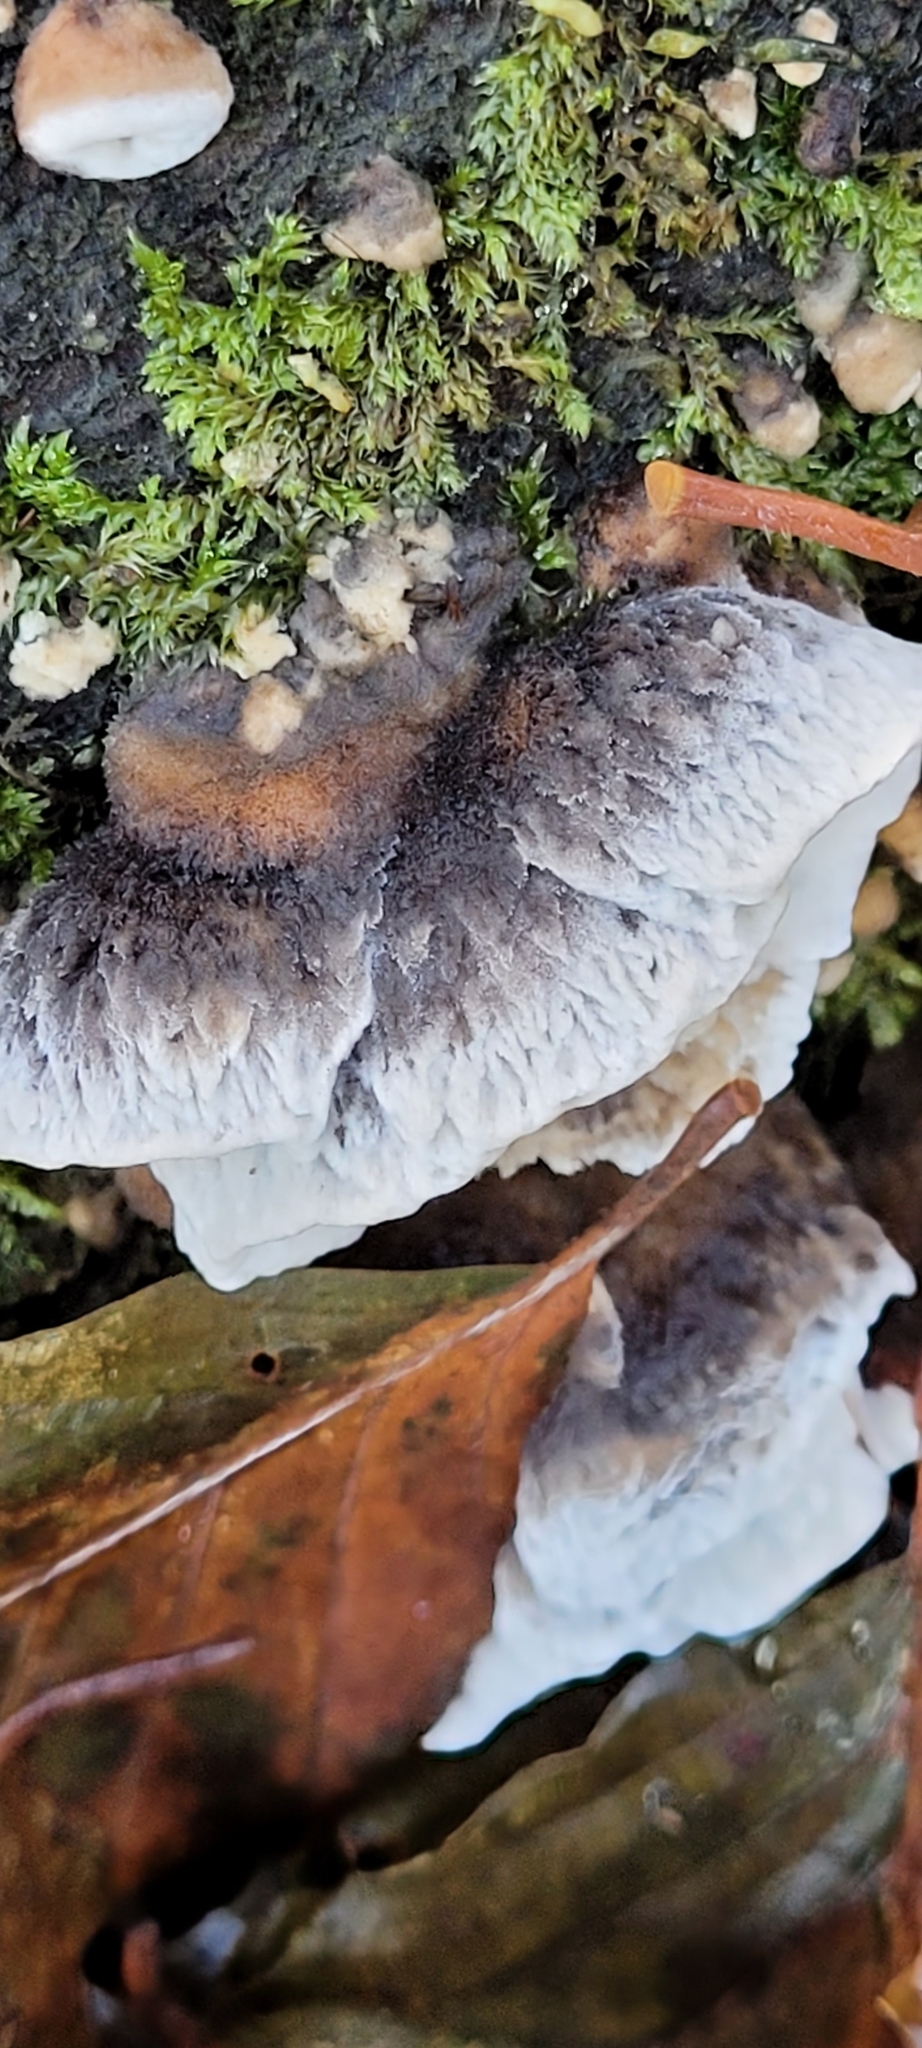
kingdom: Fungi
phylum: Basidiomycota
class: Agaricomycetes
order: Polyporales
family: Phanerochaetaceae
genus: Bjerkandera
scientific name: Bjerkandera adusta
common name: Smoky bracket
